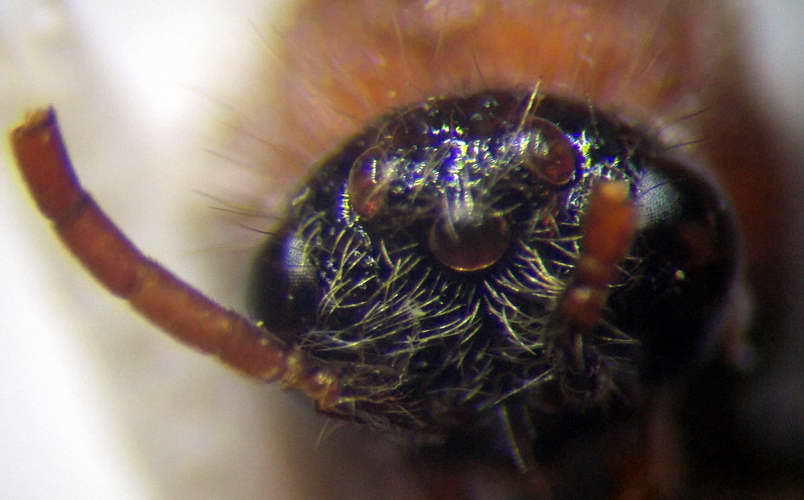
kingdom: Animalia
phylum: Arthropoda
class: Insecta
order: Hymenoptera
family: Mutillidae
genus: Smicromyrme
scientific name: Smicromyrme rufipes
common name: Small velvet ant
